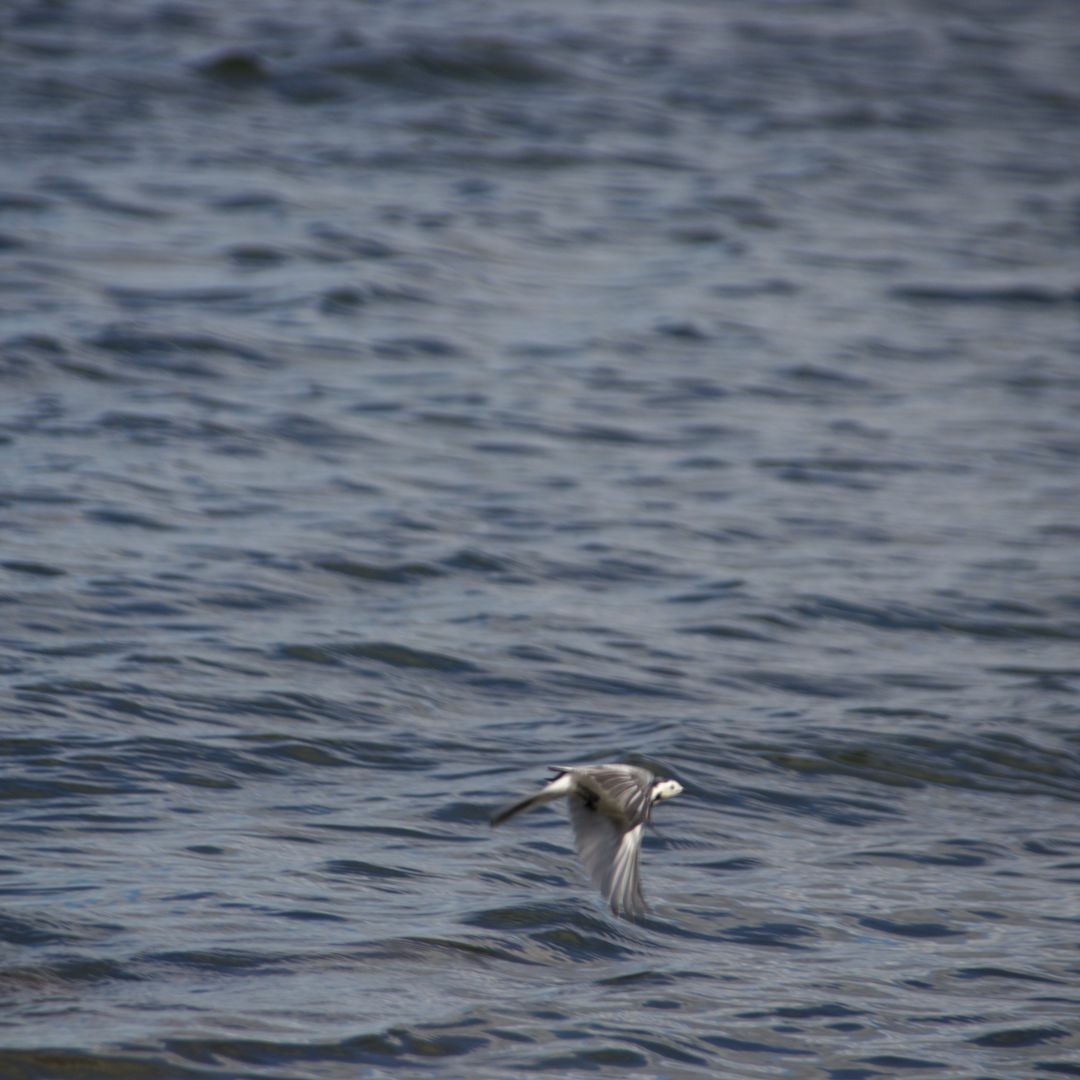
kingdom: Animalia
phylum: Chordata
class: Aves
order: Passeriformes
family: Motacillidae
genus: Motacilla
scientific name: Motacilla alba
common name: White wagtail
